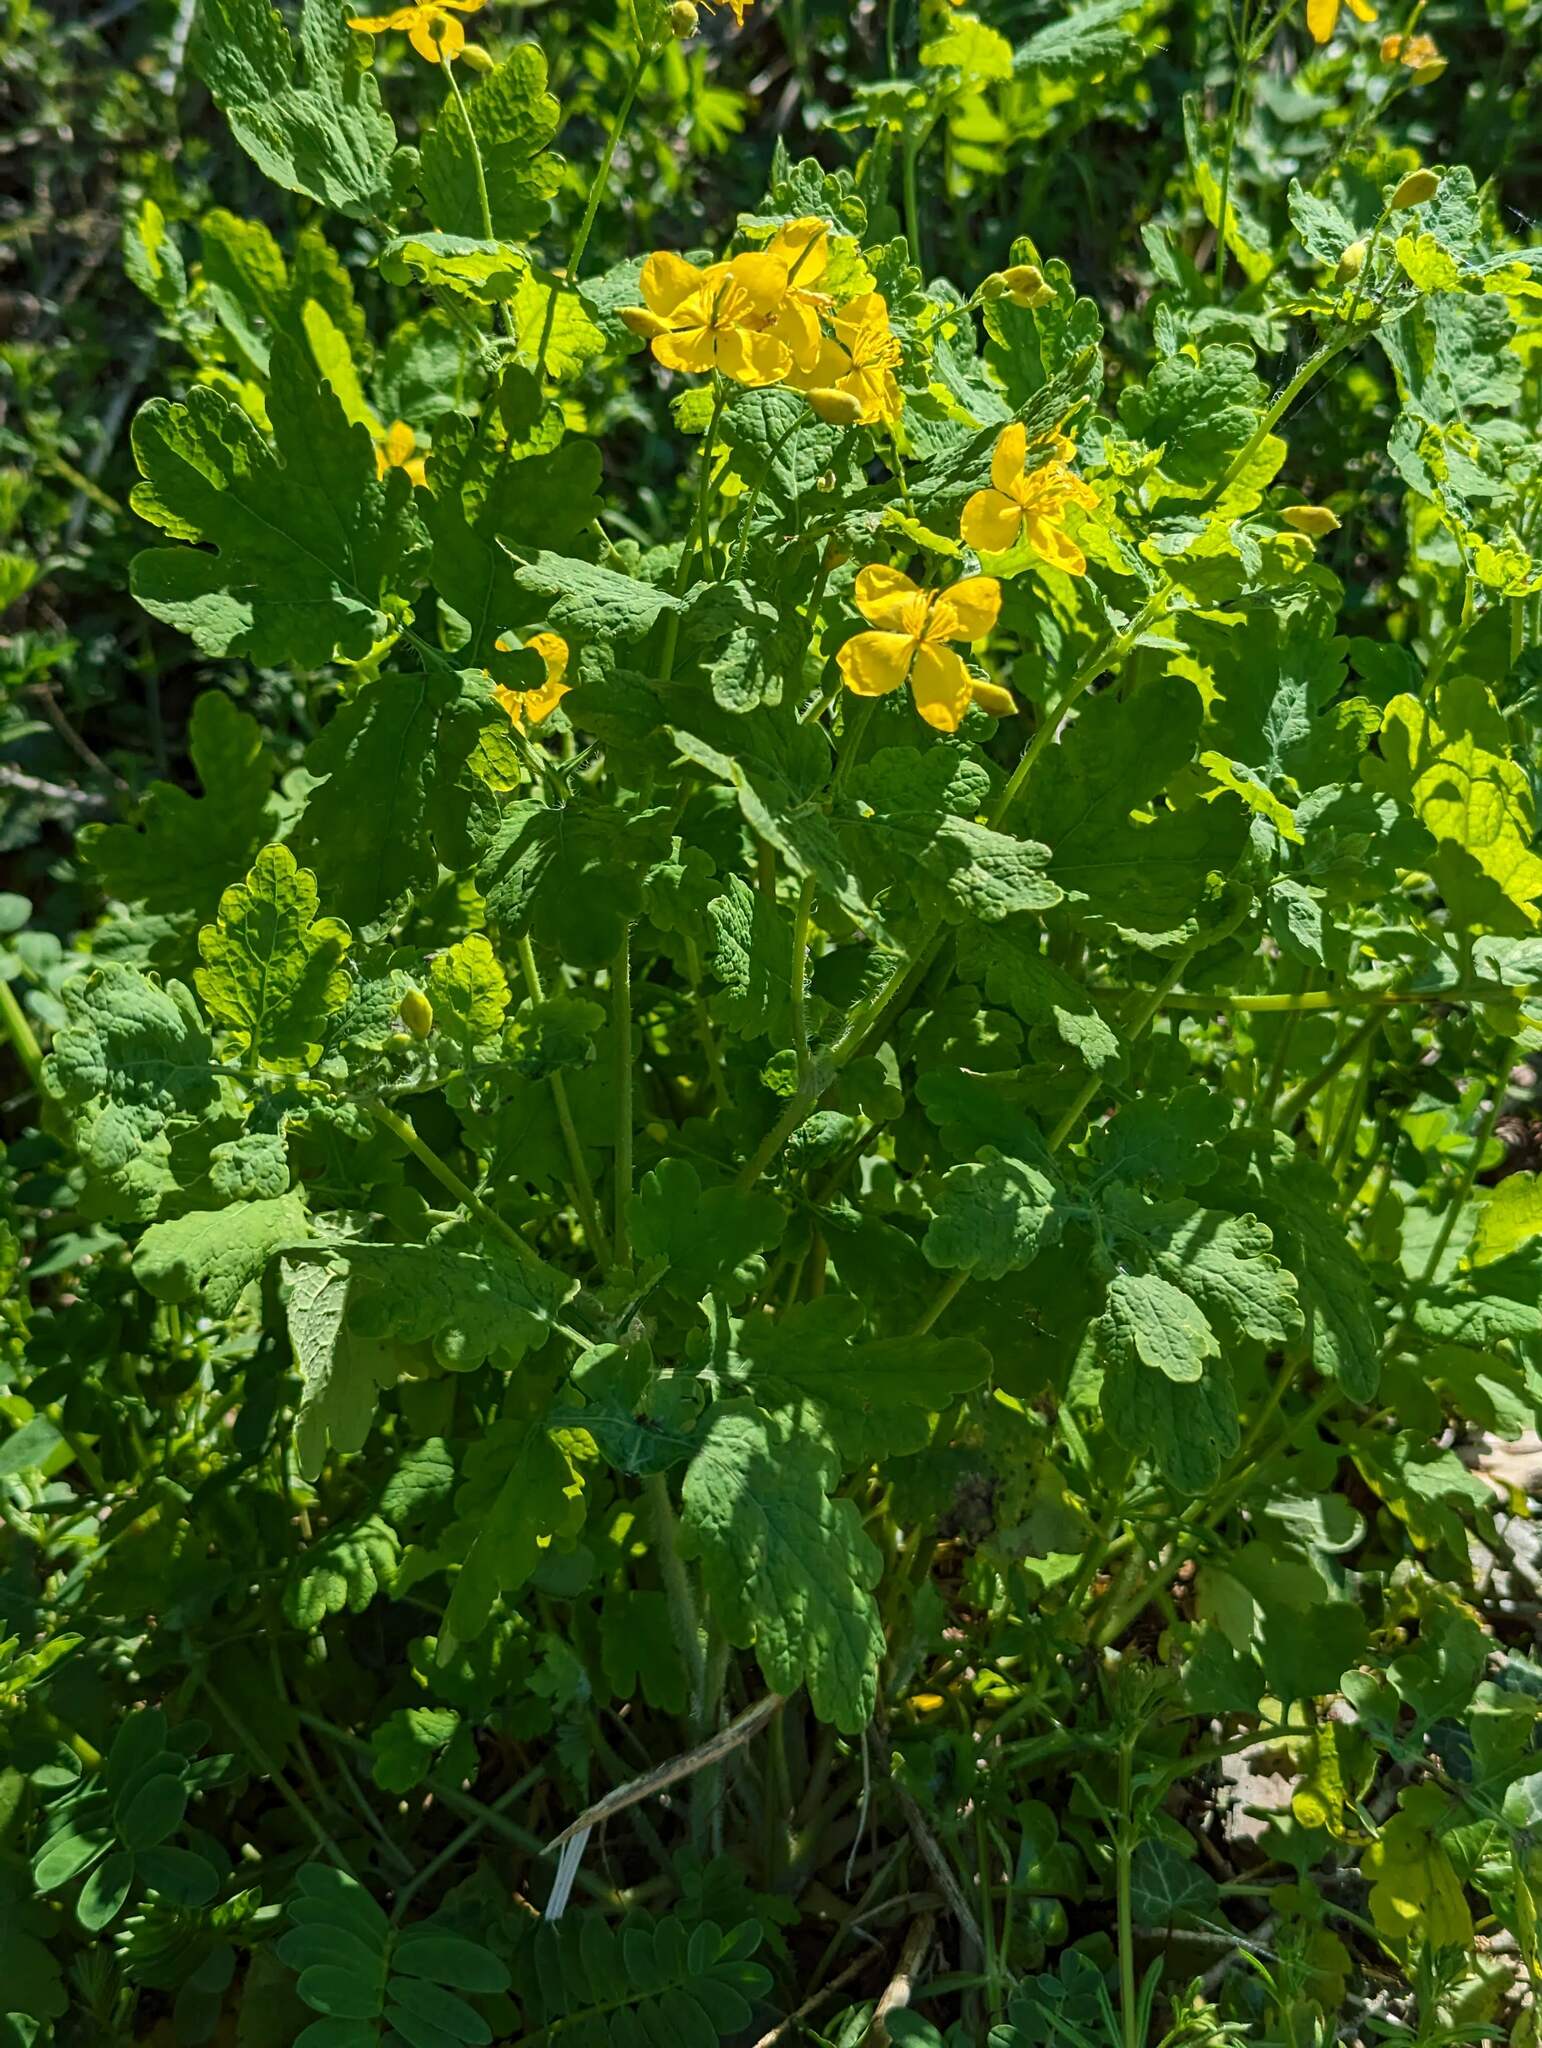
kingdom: Plantae
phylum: Tracheophyta
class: Magnoliopsida
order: Ranunculales
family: Papaveraceae
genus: Chelidonium
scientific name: Chelidonium majus
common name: Greater celandine
